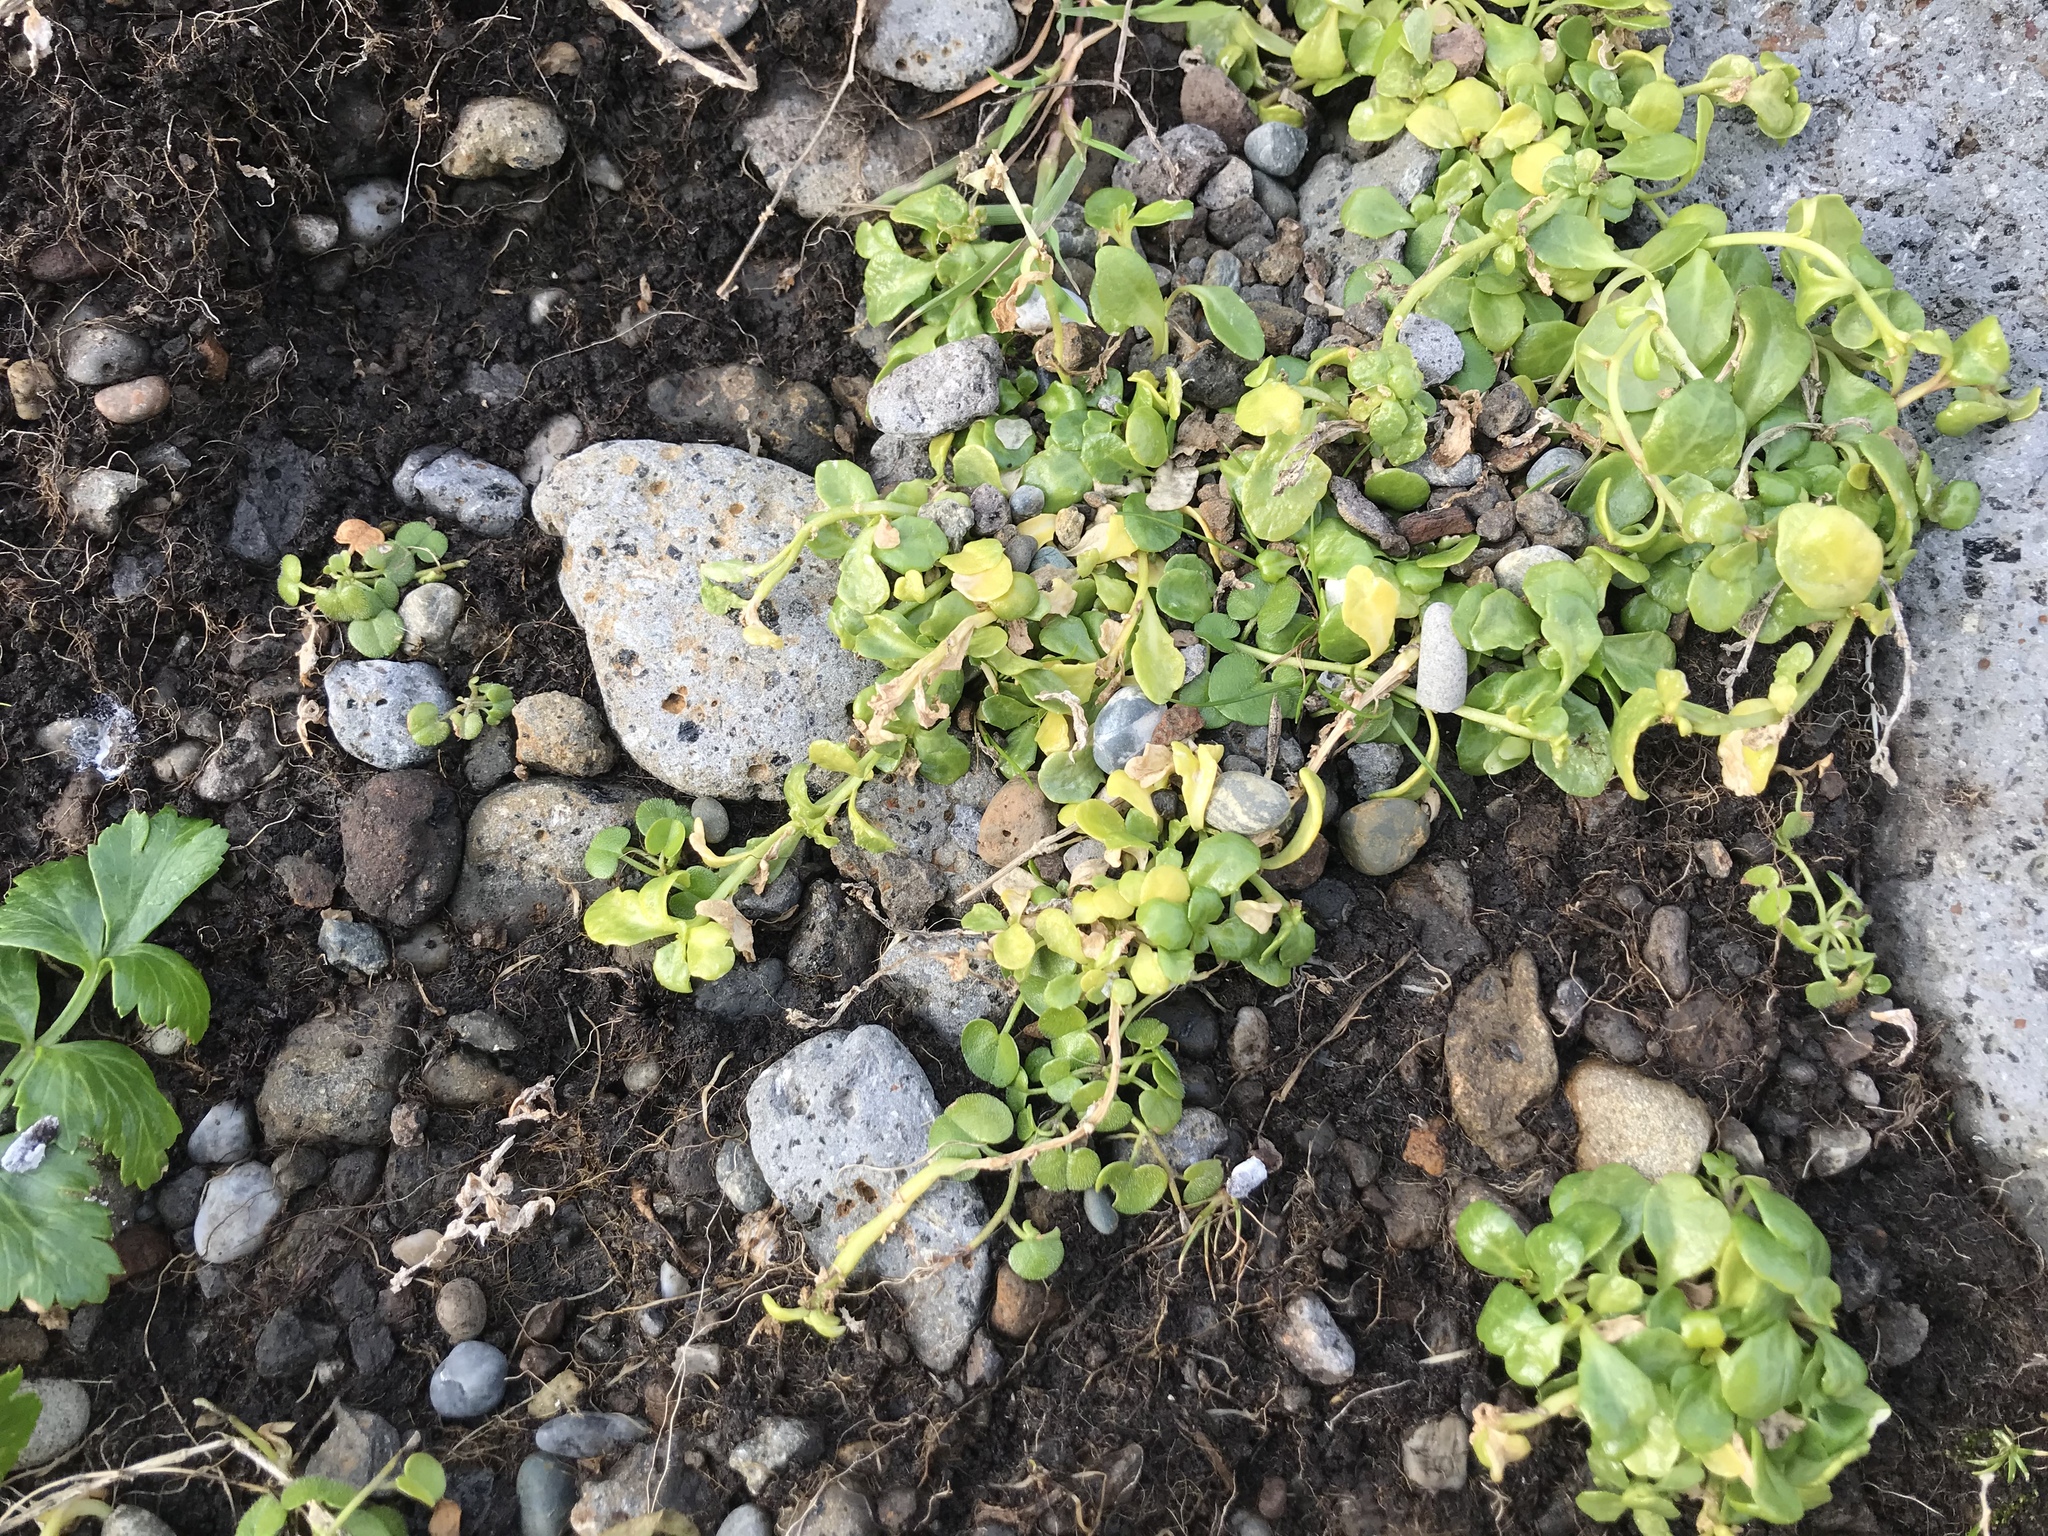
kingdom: Plantae
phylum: Tracheophyta
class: Magnoliopsida
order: Asterales
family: Campanulaceae
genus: Lobelia
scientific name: Lobelia anceps
